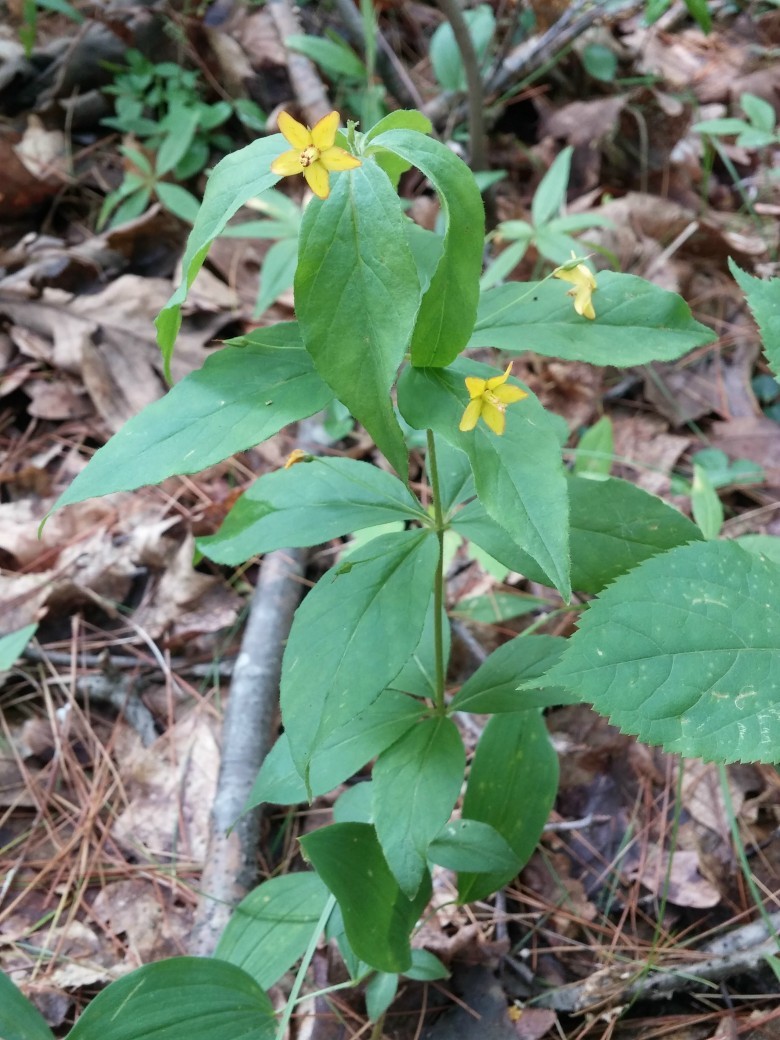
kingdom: Plantae
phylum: Tracheophyta
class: Magnoliopsida
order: Ericales
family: Primulaceae
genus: Lysimachia
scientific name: Lysimachia quadrifolia
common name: Whorled loosestrife
